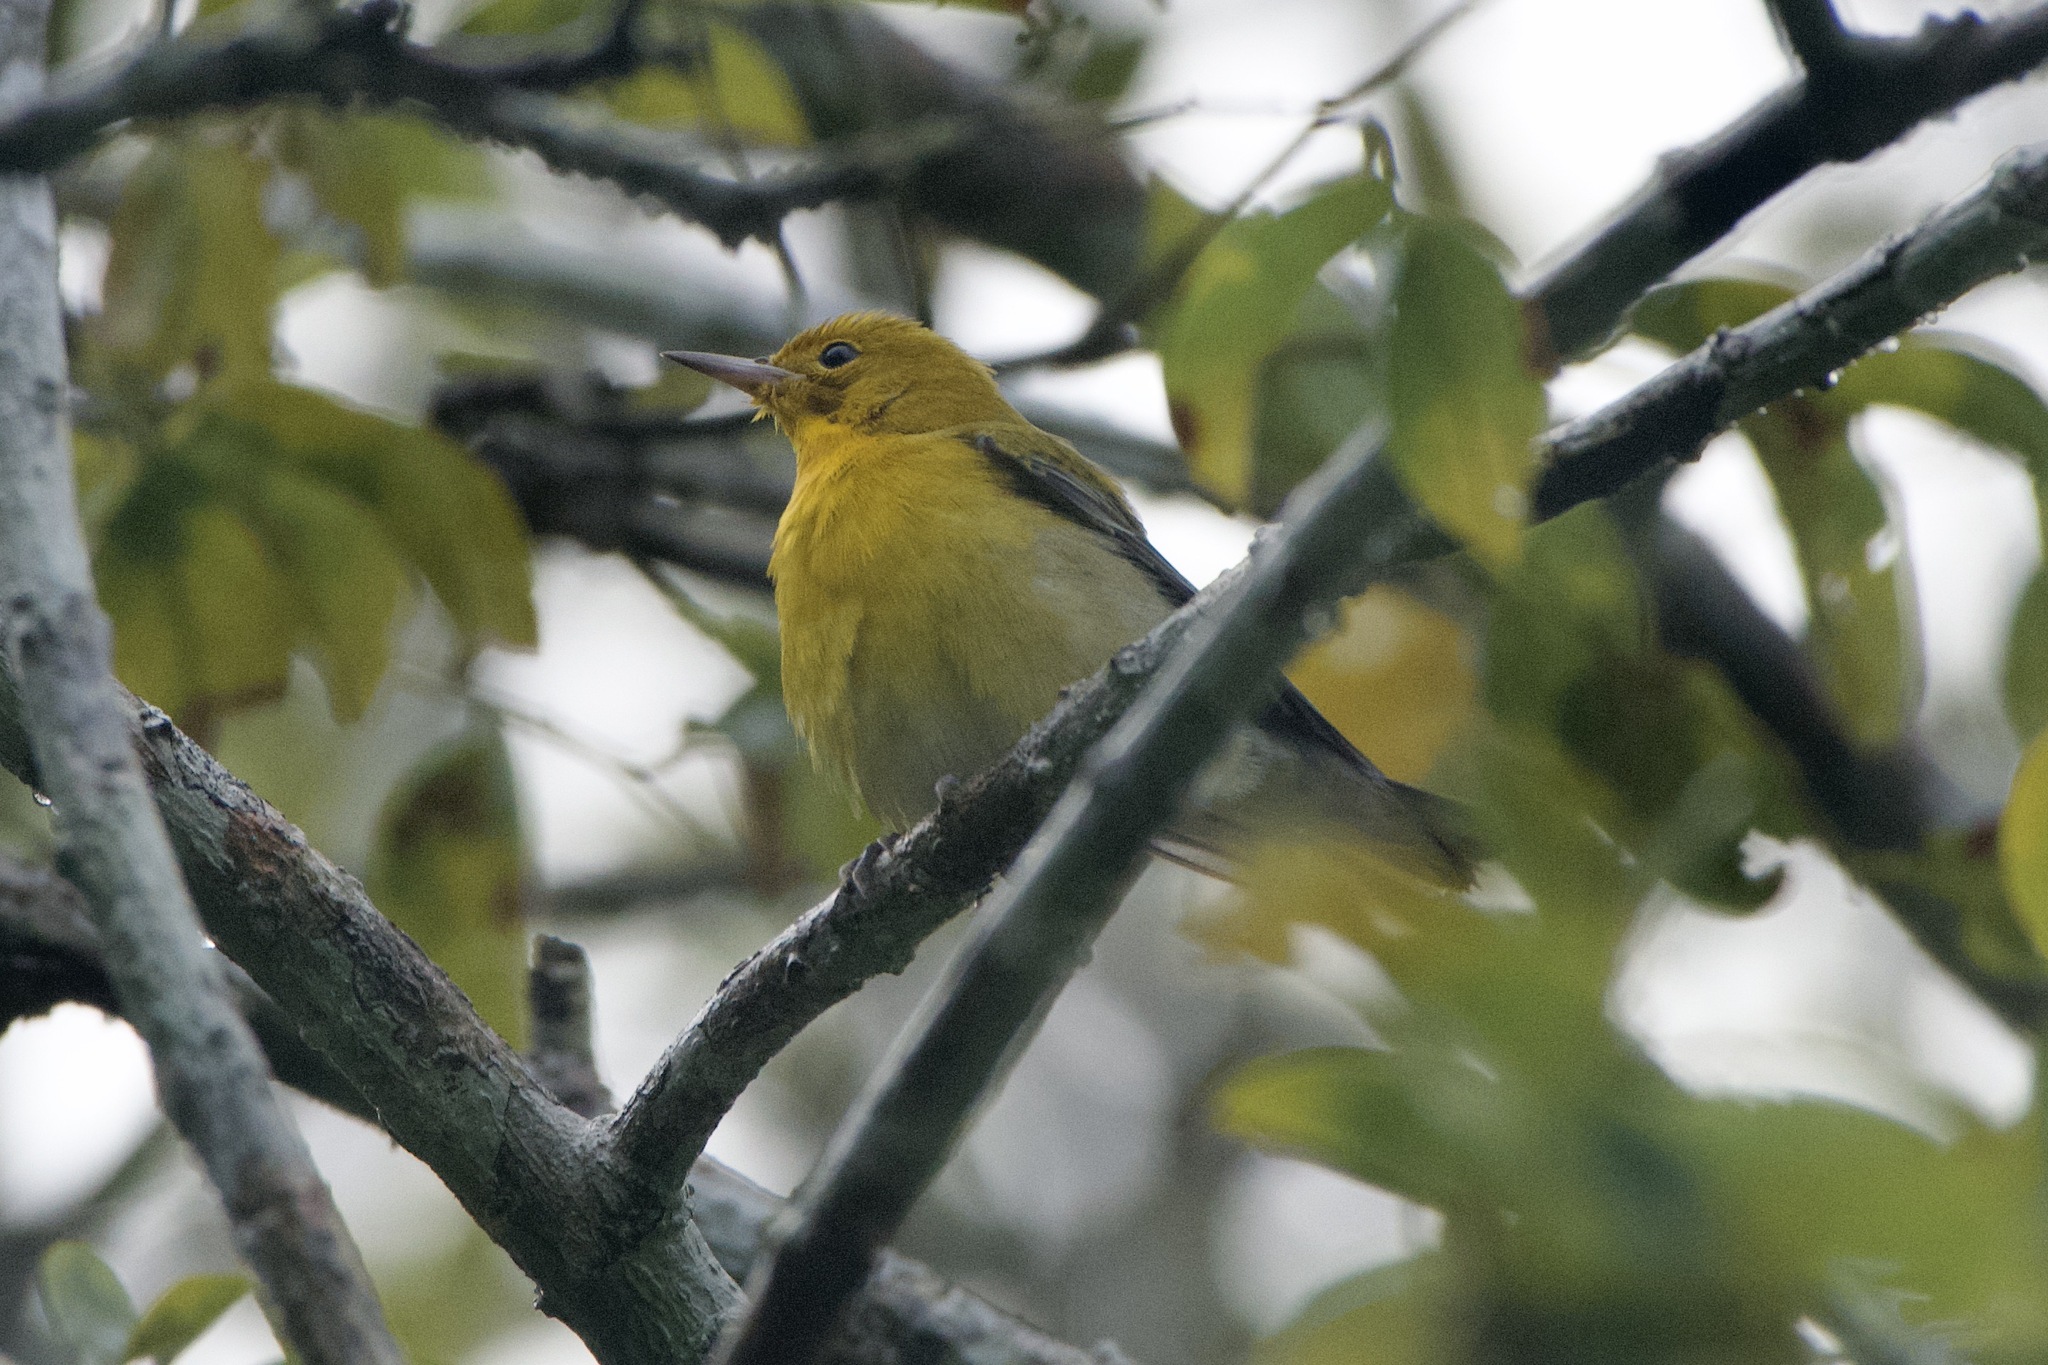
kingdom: Animalia
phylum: Chordata
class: Aves
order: Passeriformes
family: Parulidae
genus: Protonotaria
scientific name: Protonotaria citrea
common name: Prothonotary warbler
